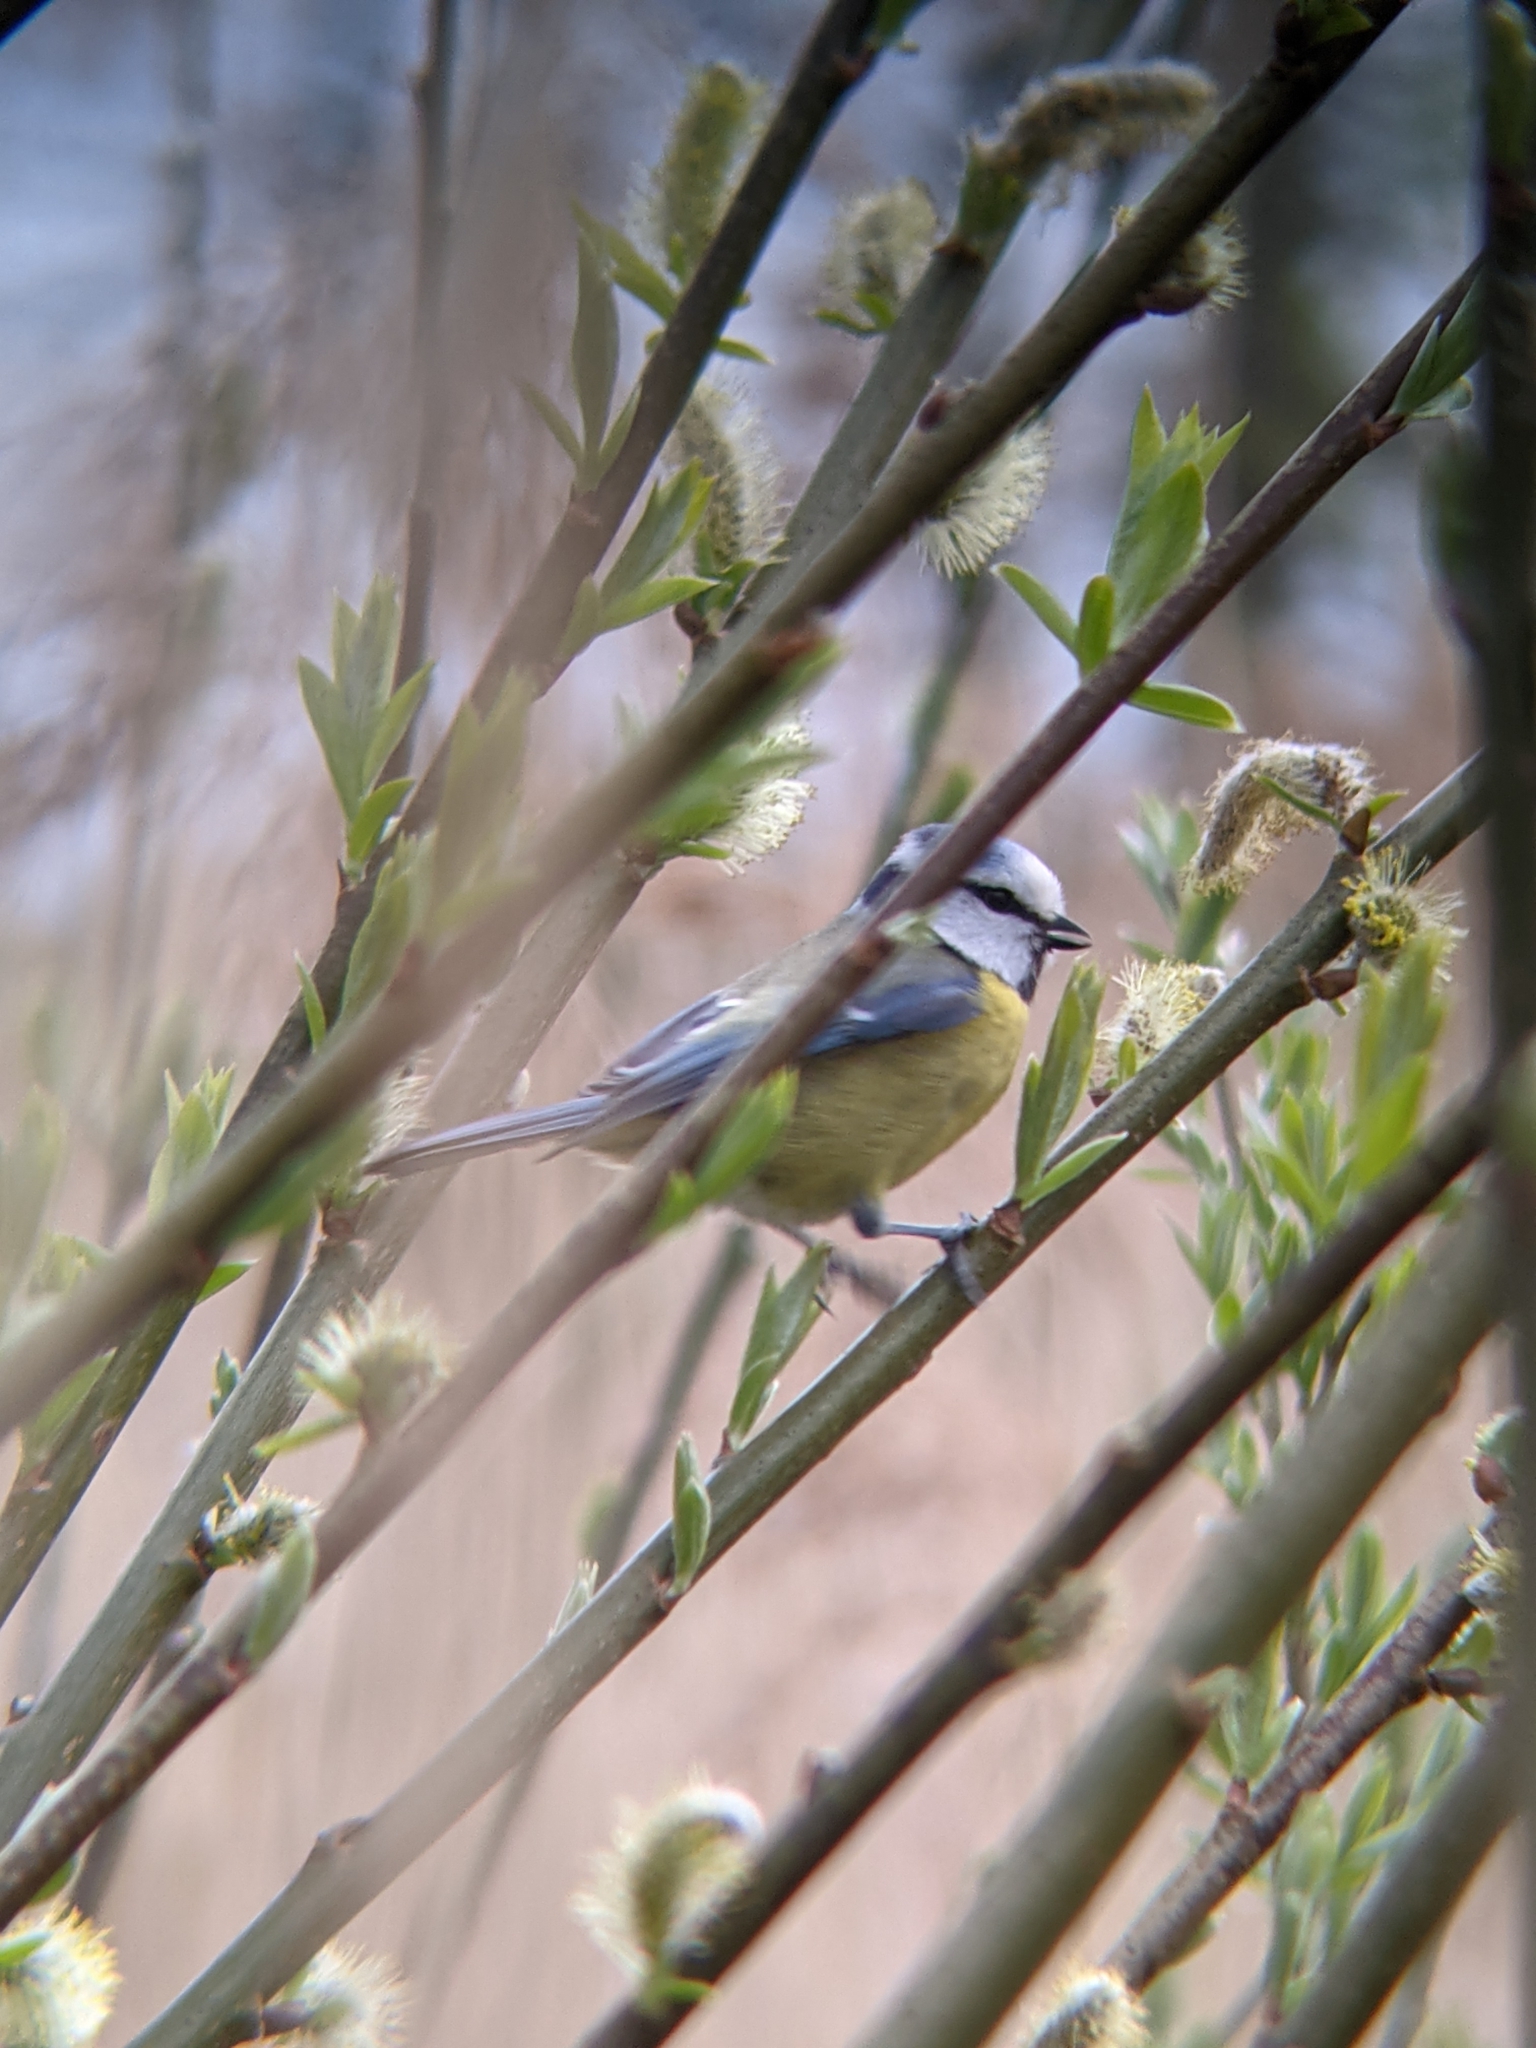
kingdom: Animalia
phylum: Chordata
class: Aves
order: Passeriformes
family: Paridae
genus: Cyanistes
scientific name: Cyanistes caeruleus
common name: Eurasian blue tit
